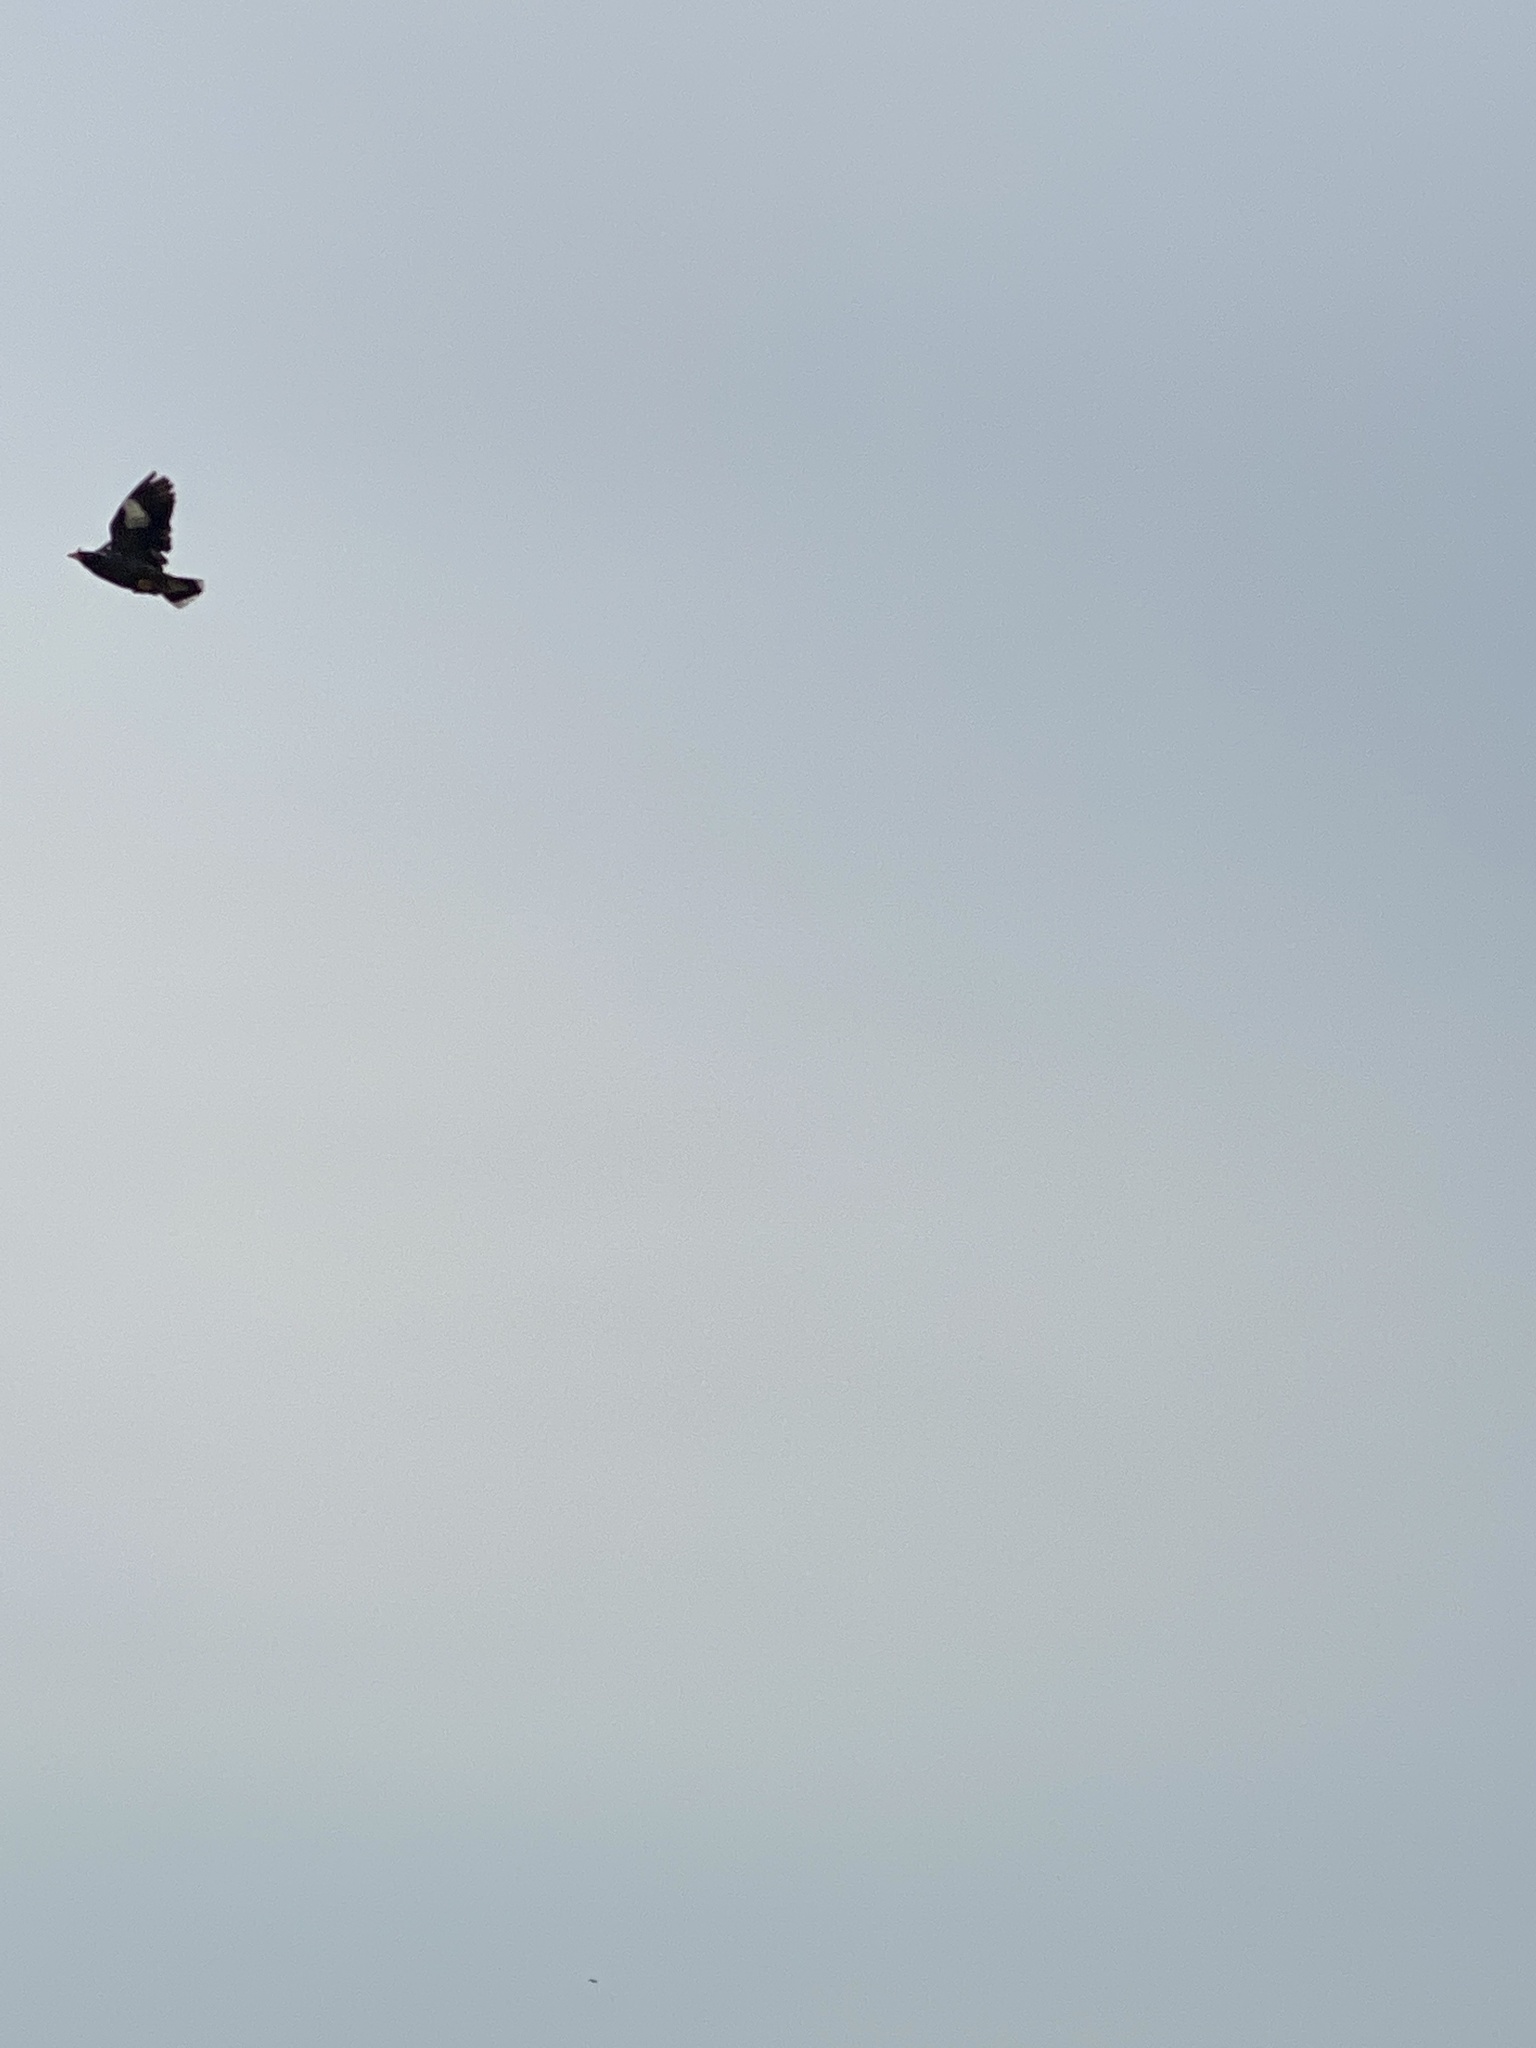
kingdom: Animalia
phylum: Chordata
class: Aves
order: Passeriformes
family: Sturnidae
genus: Acridotheres
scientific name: Acridotheres javanicus
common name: Javan myna
